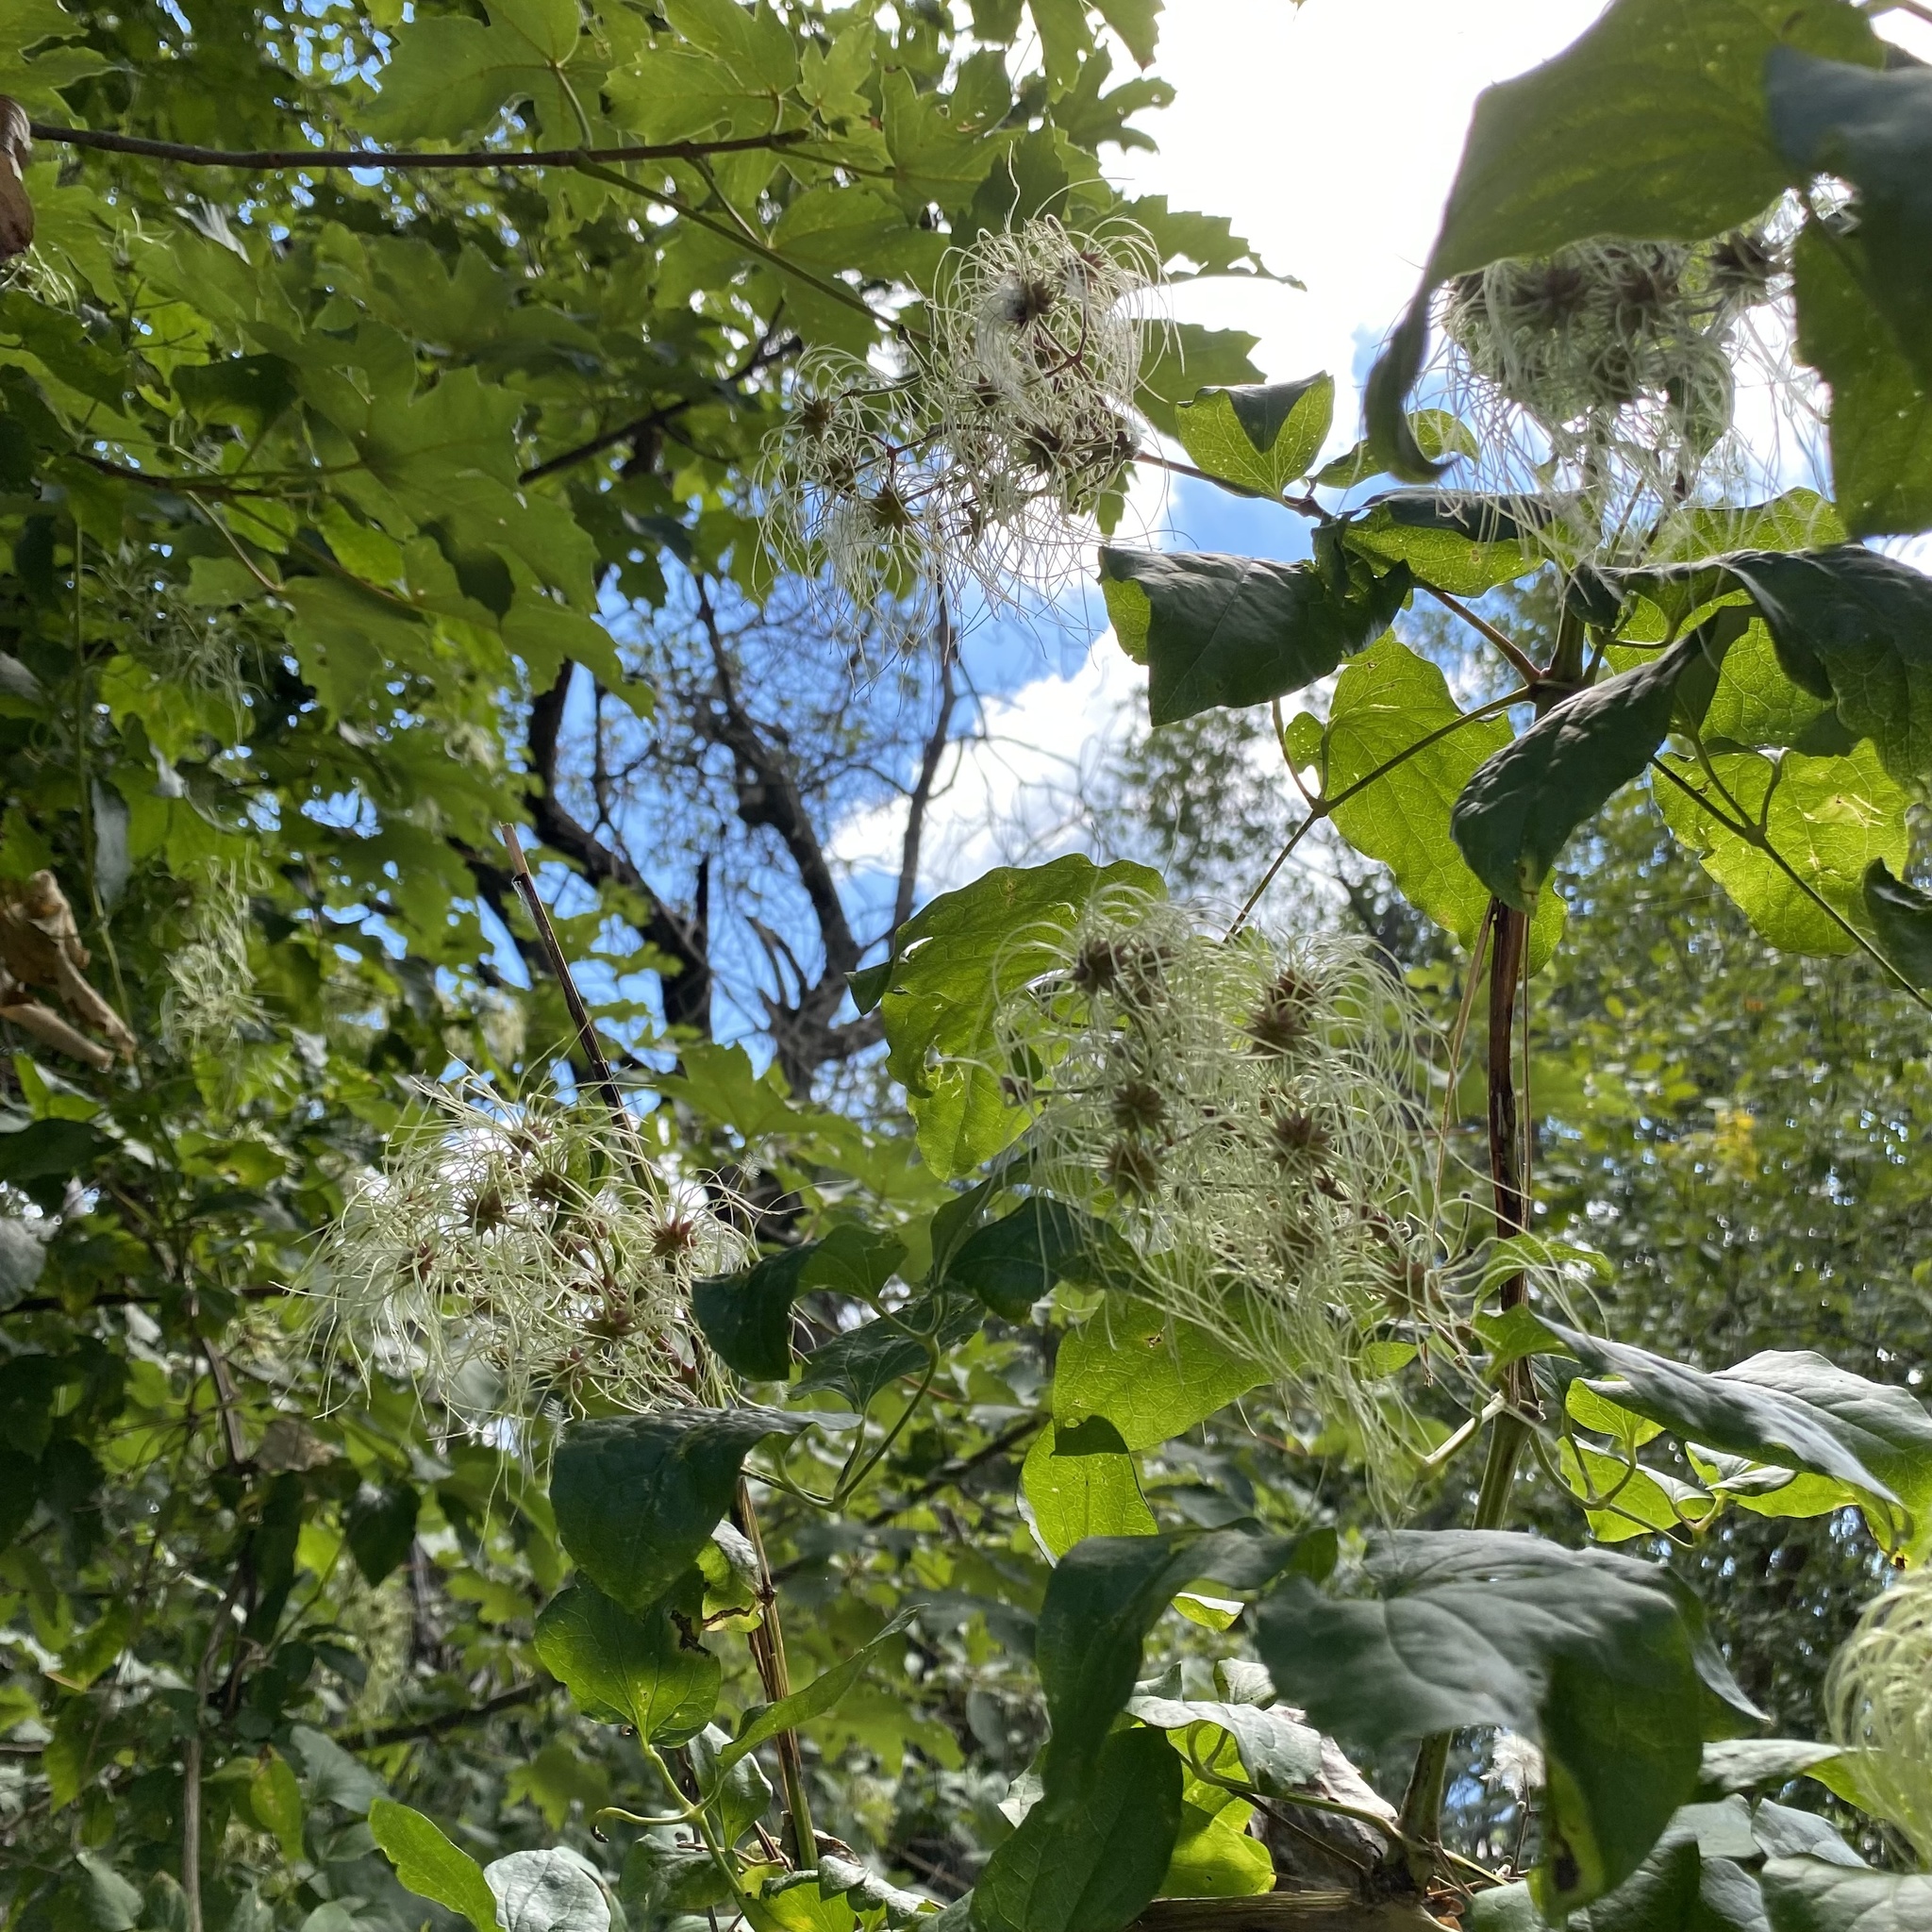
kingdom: Plantae
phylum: Tracheophyta
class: Magnoliopsida
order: Ranunculales
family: Ranunculaceae
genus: Clematis
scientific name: Clematis vitalba
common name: Evergreen clematis
